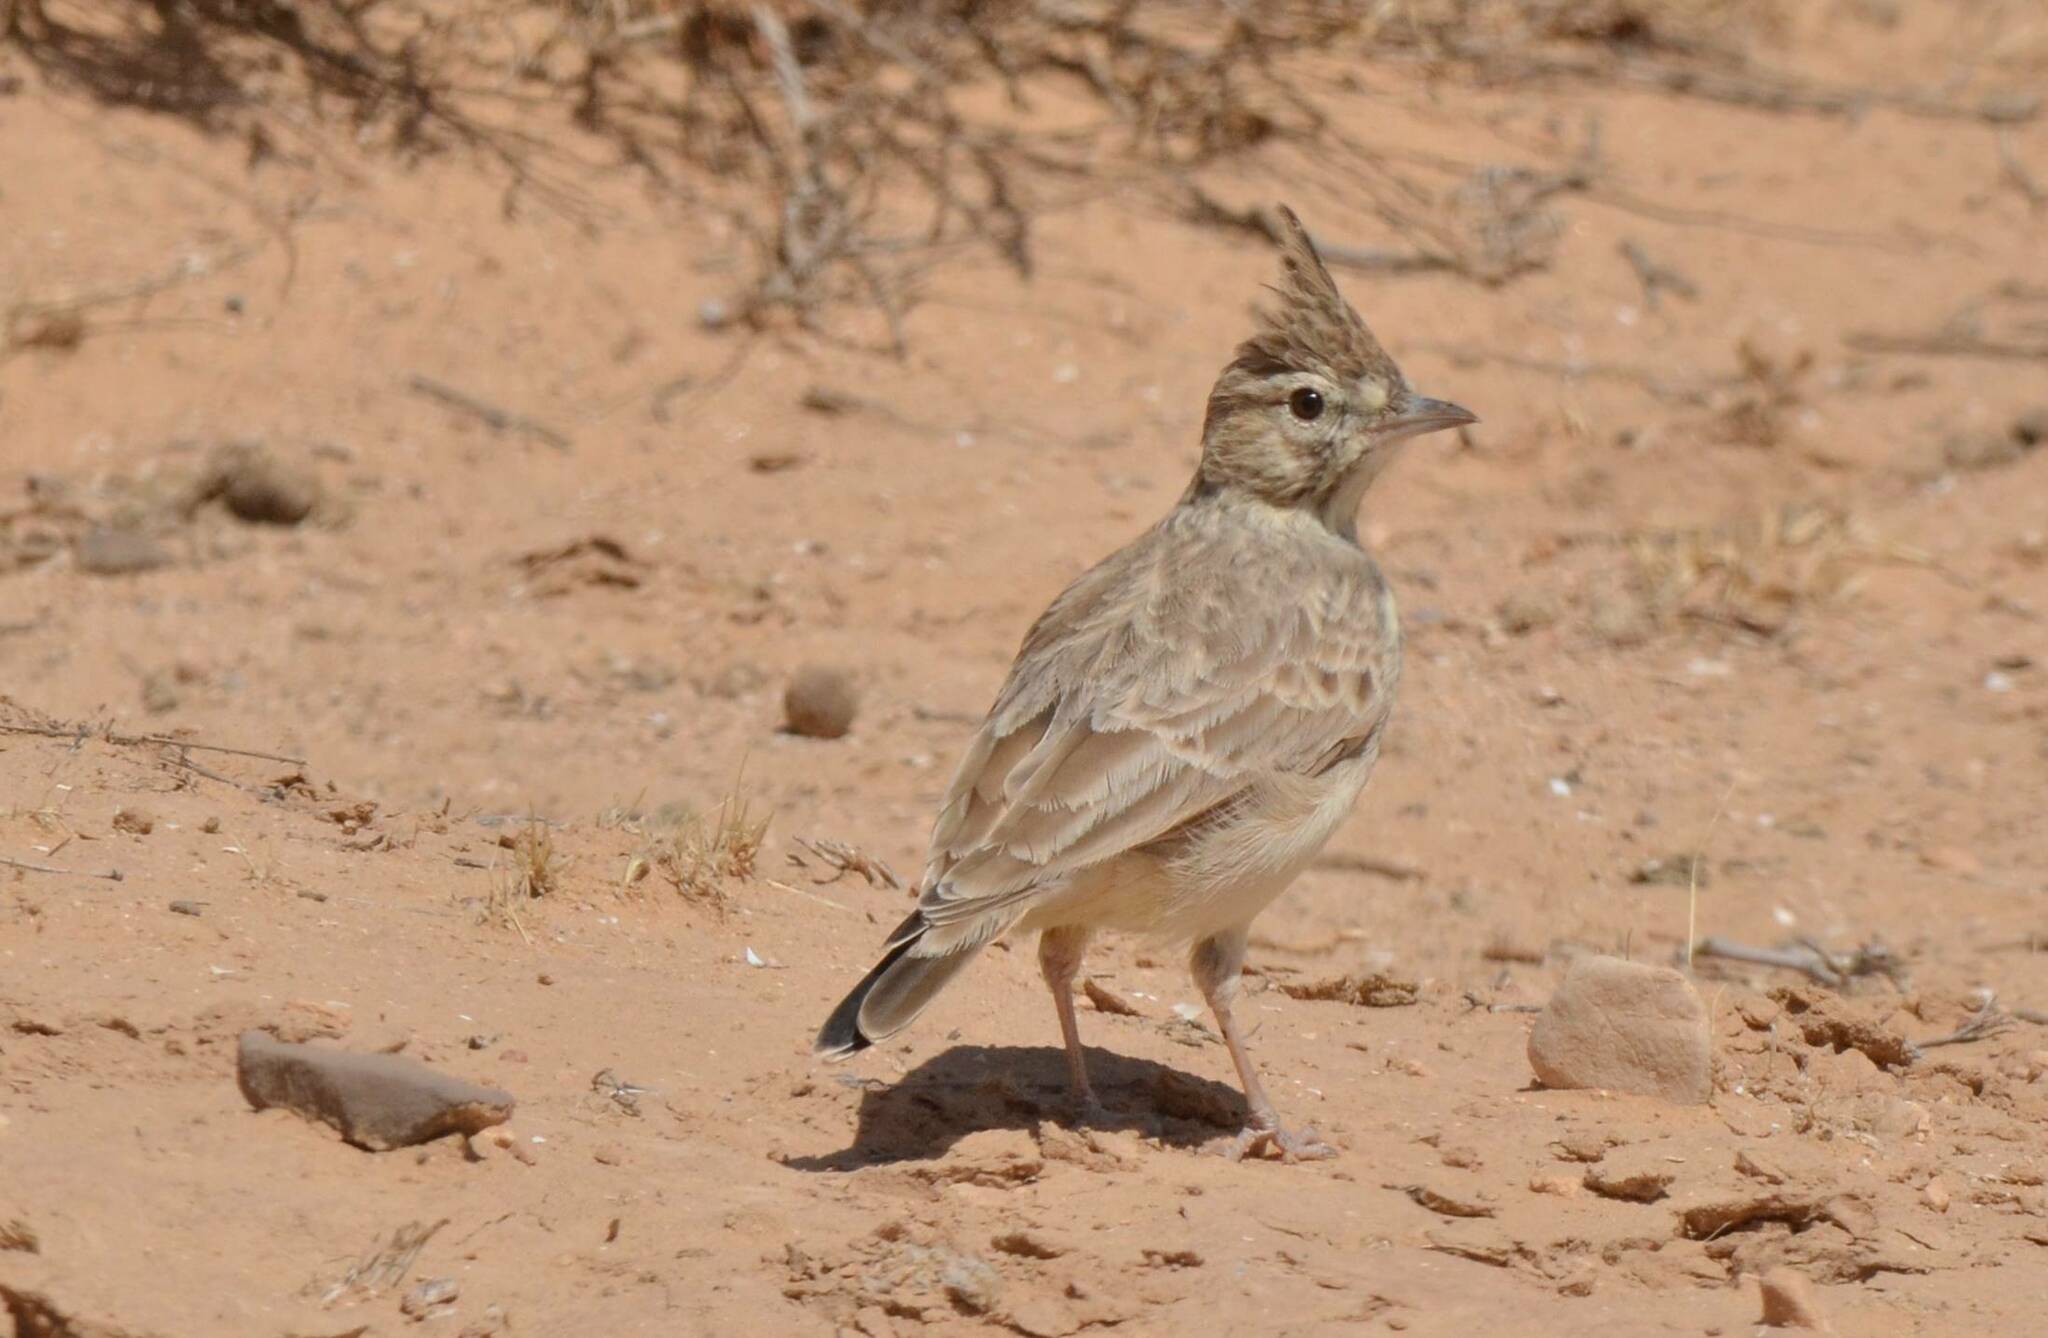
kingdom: Animalia
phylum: Chordata
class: Aves
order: Passeriformes
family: Alaudidae
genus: Galerida
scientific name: Galerida cristata
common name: Crested lark
